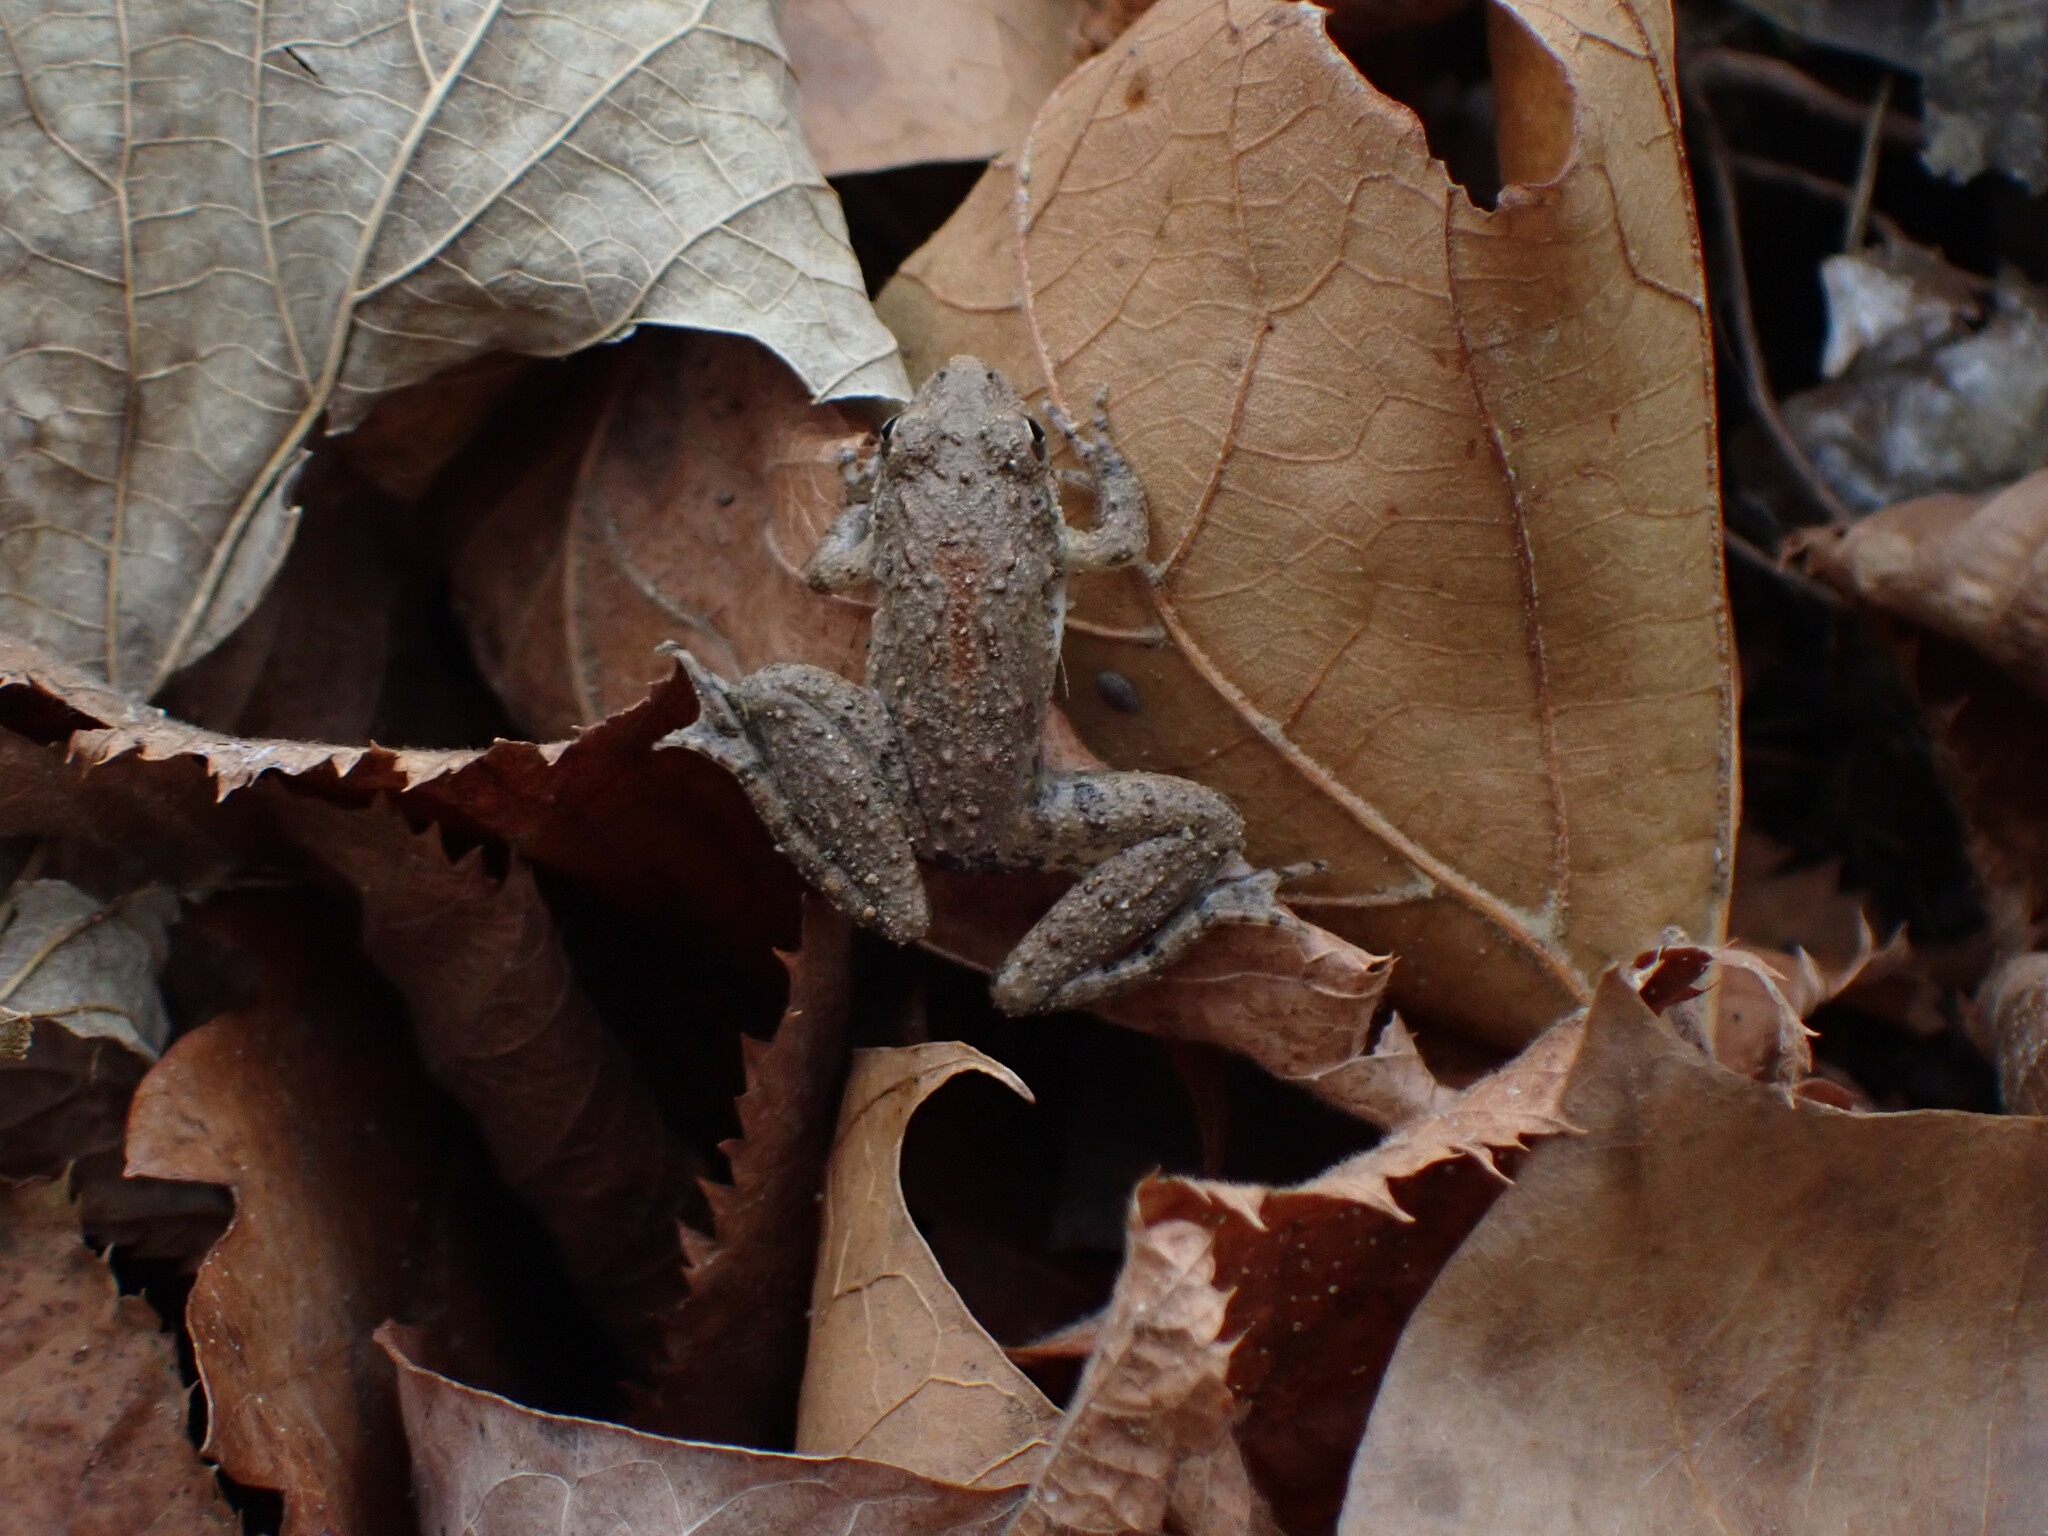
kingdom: Animalia
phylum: Chordata
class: Amphibia
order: Anura
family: Hylidae
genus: Acris
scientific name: Acris blanchardi
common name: Blanchard's cricket frog
